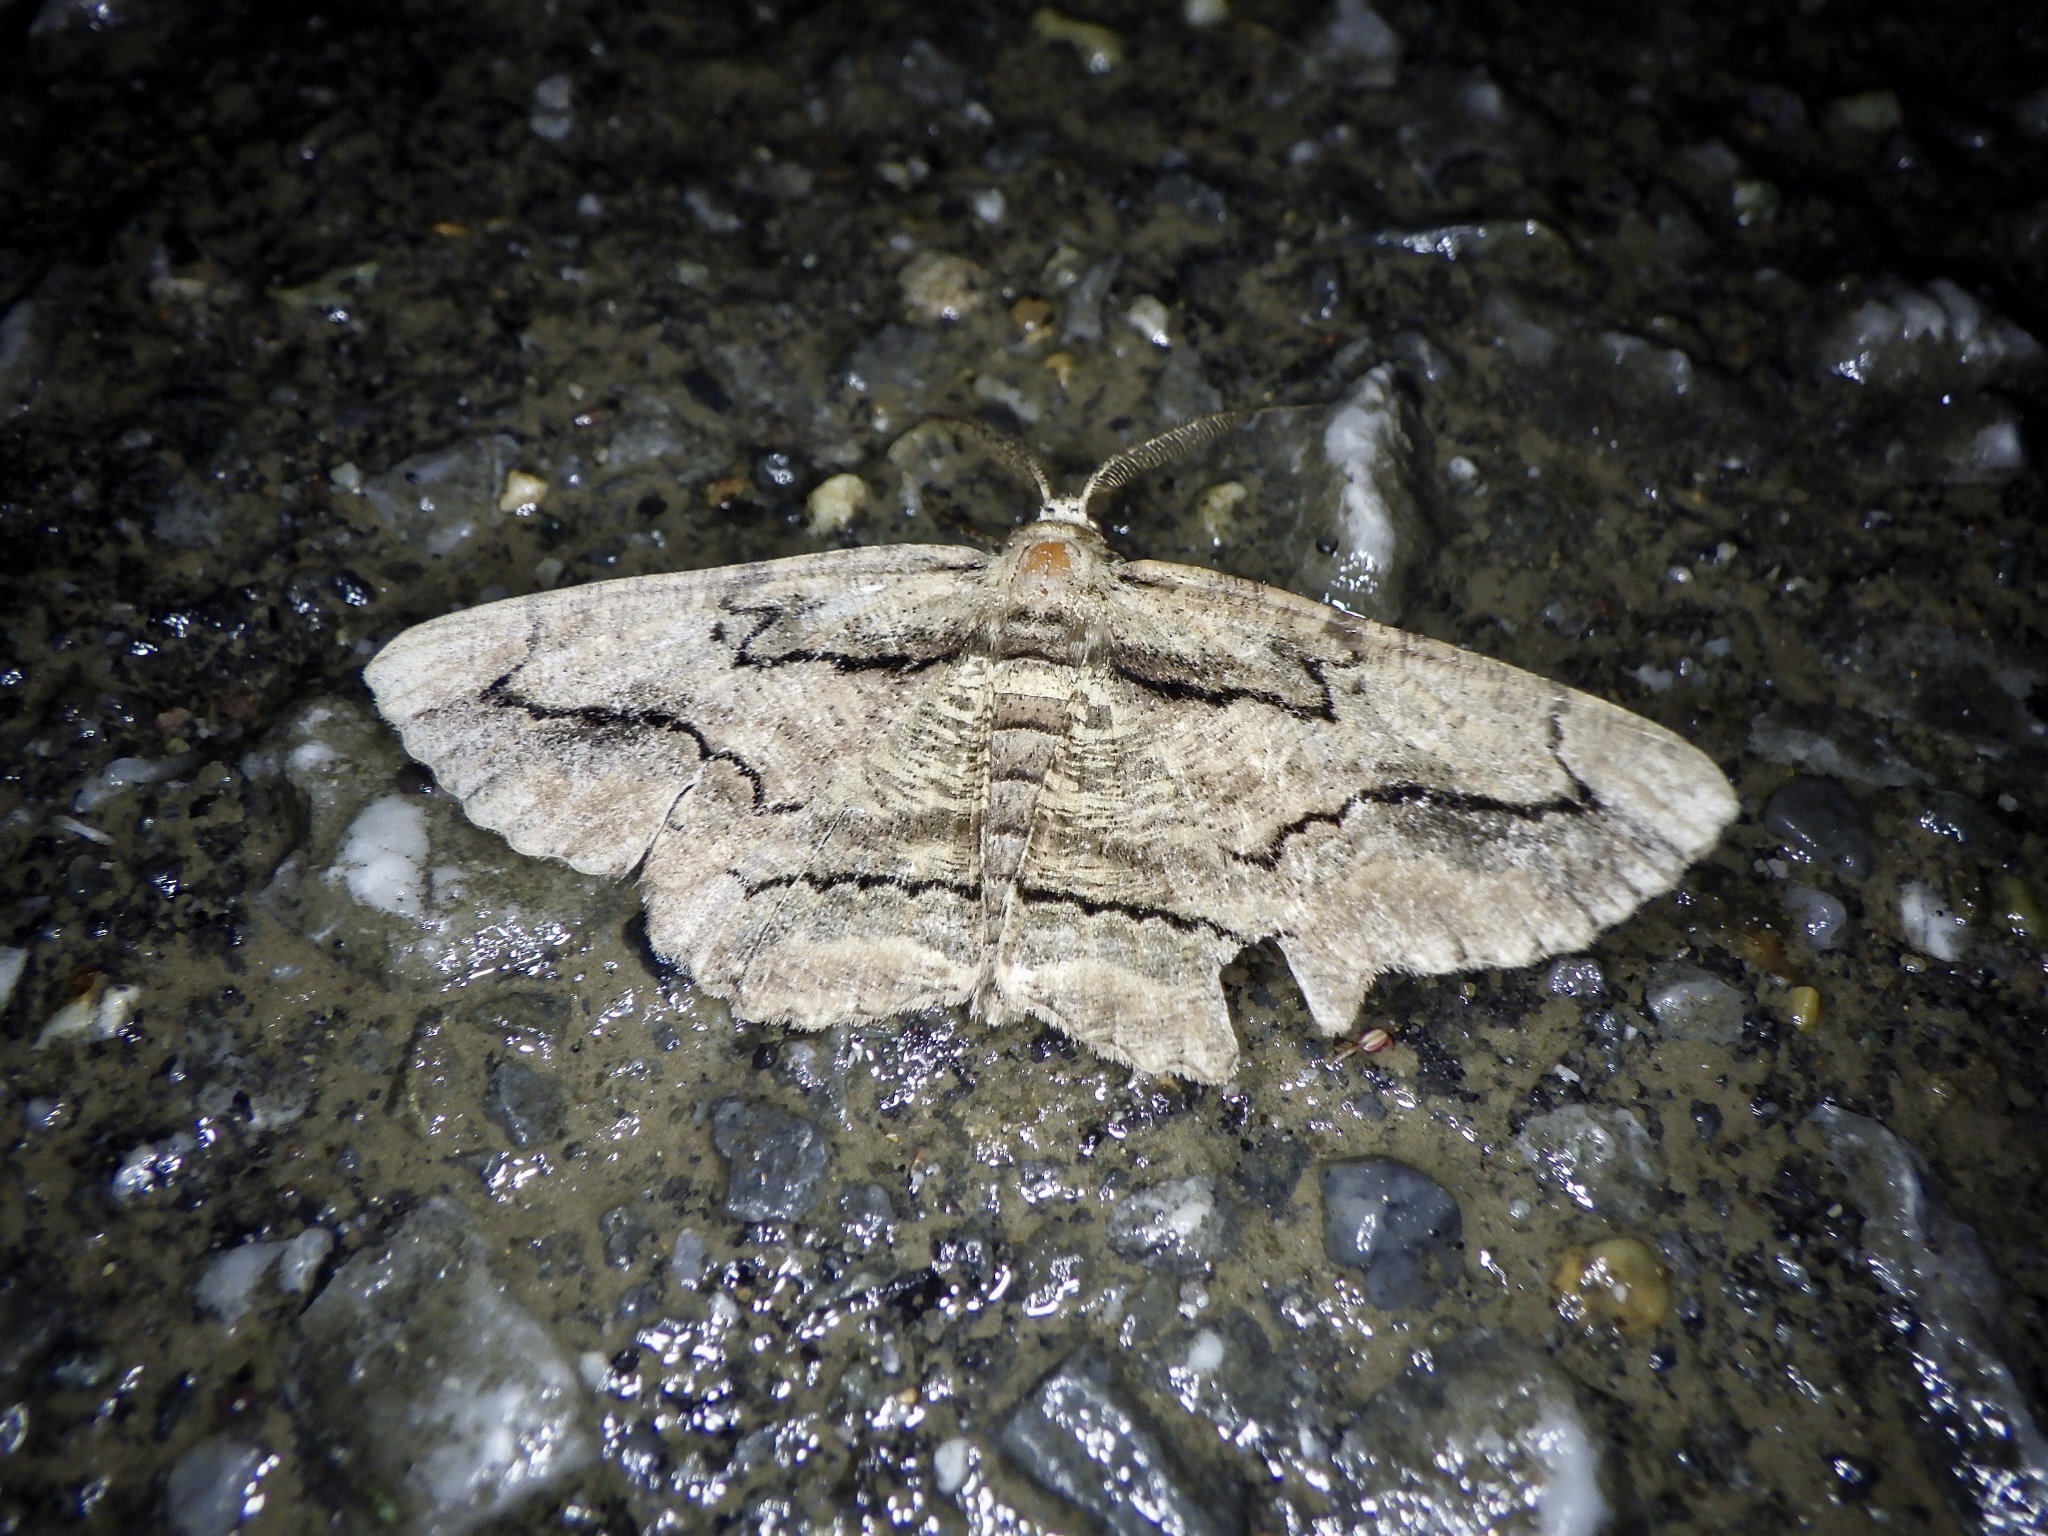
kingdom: Animalia
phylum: Arthropoda
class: Insecta
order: Lepidoptera
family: Geometridae
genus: Menophra
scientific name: Menophra senilis
